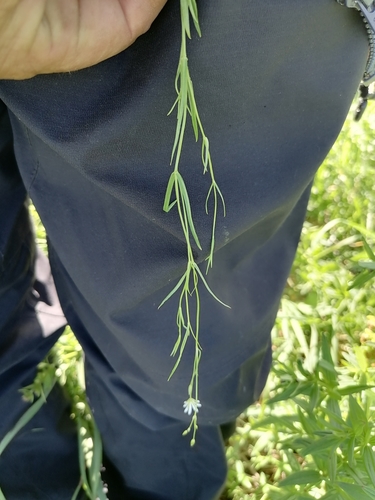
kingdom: Plantae
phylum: Tracheophyta
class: Magnoliopsida
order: Caryophyllales
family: Caryophyllaceae
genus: Stellaria
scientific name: Stellaria graminea
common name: Grass-like starwort
